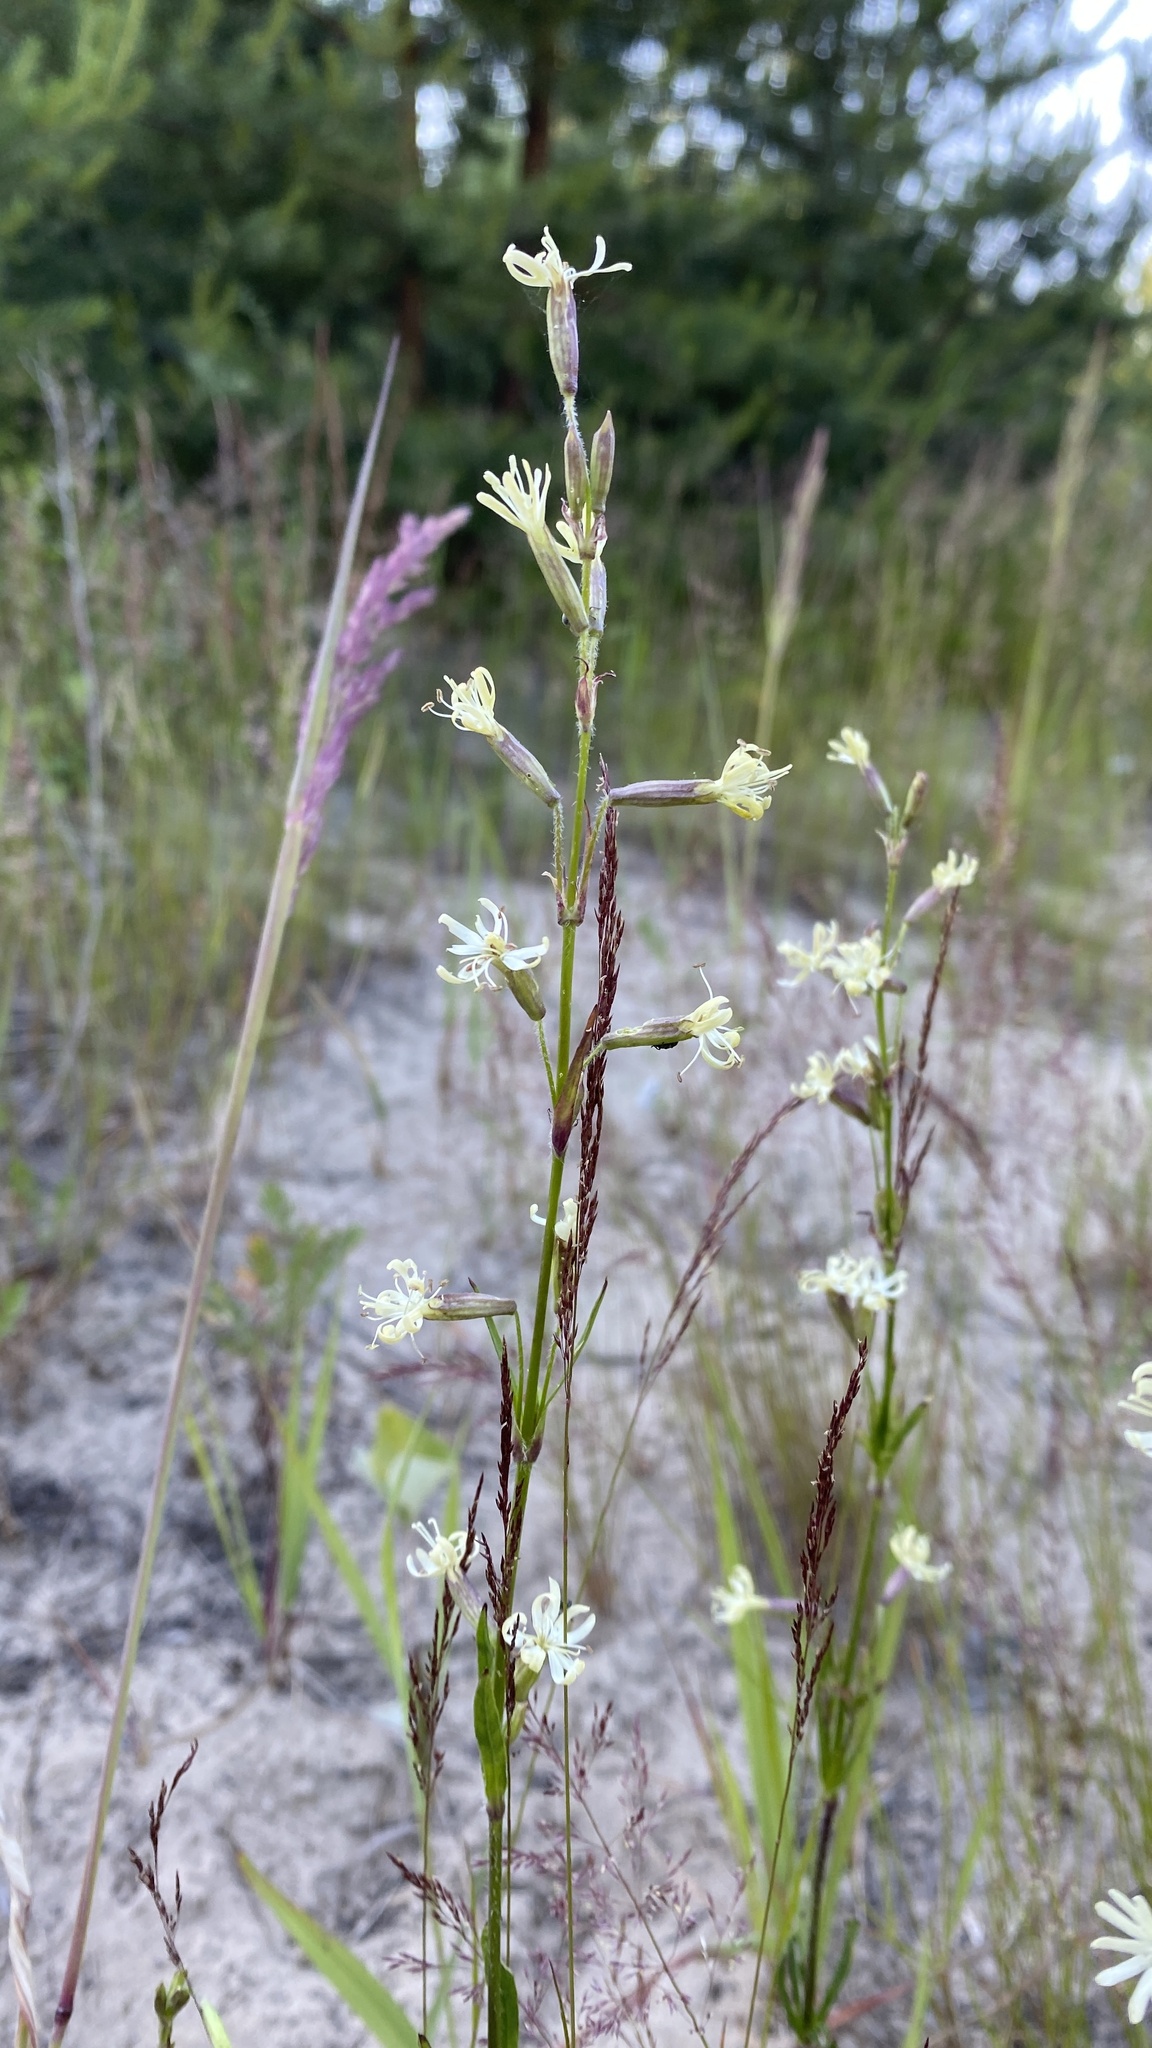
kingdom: Plantae
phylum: Tracheophyta
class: Magnoliopsida
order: Caryophyllales
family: Caryophyllaceae
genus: Silene
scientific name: Silene tatarica
